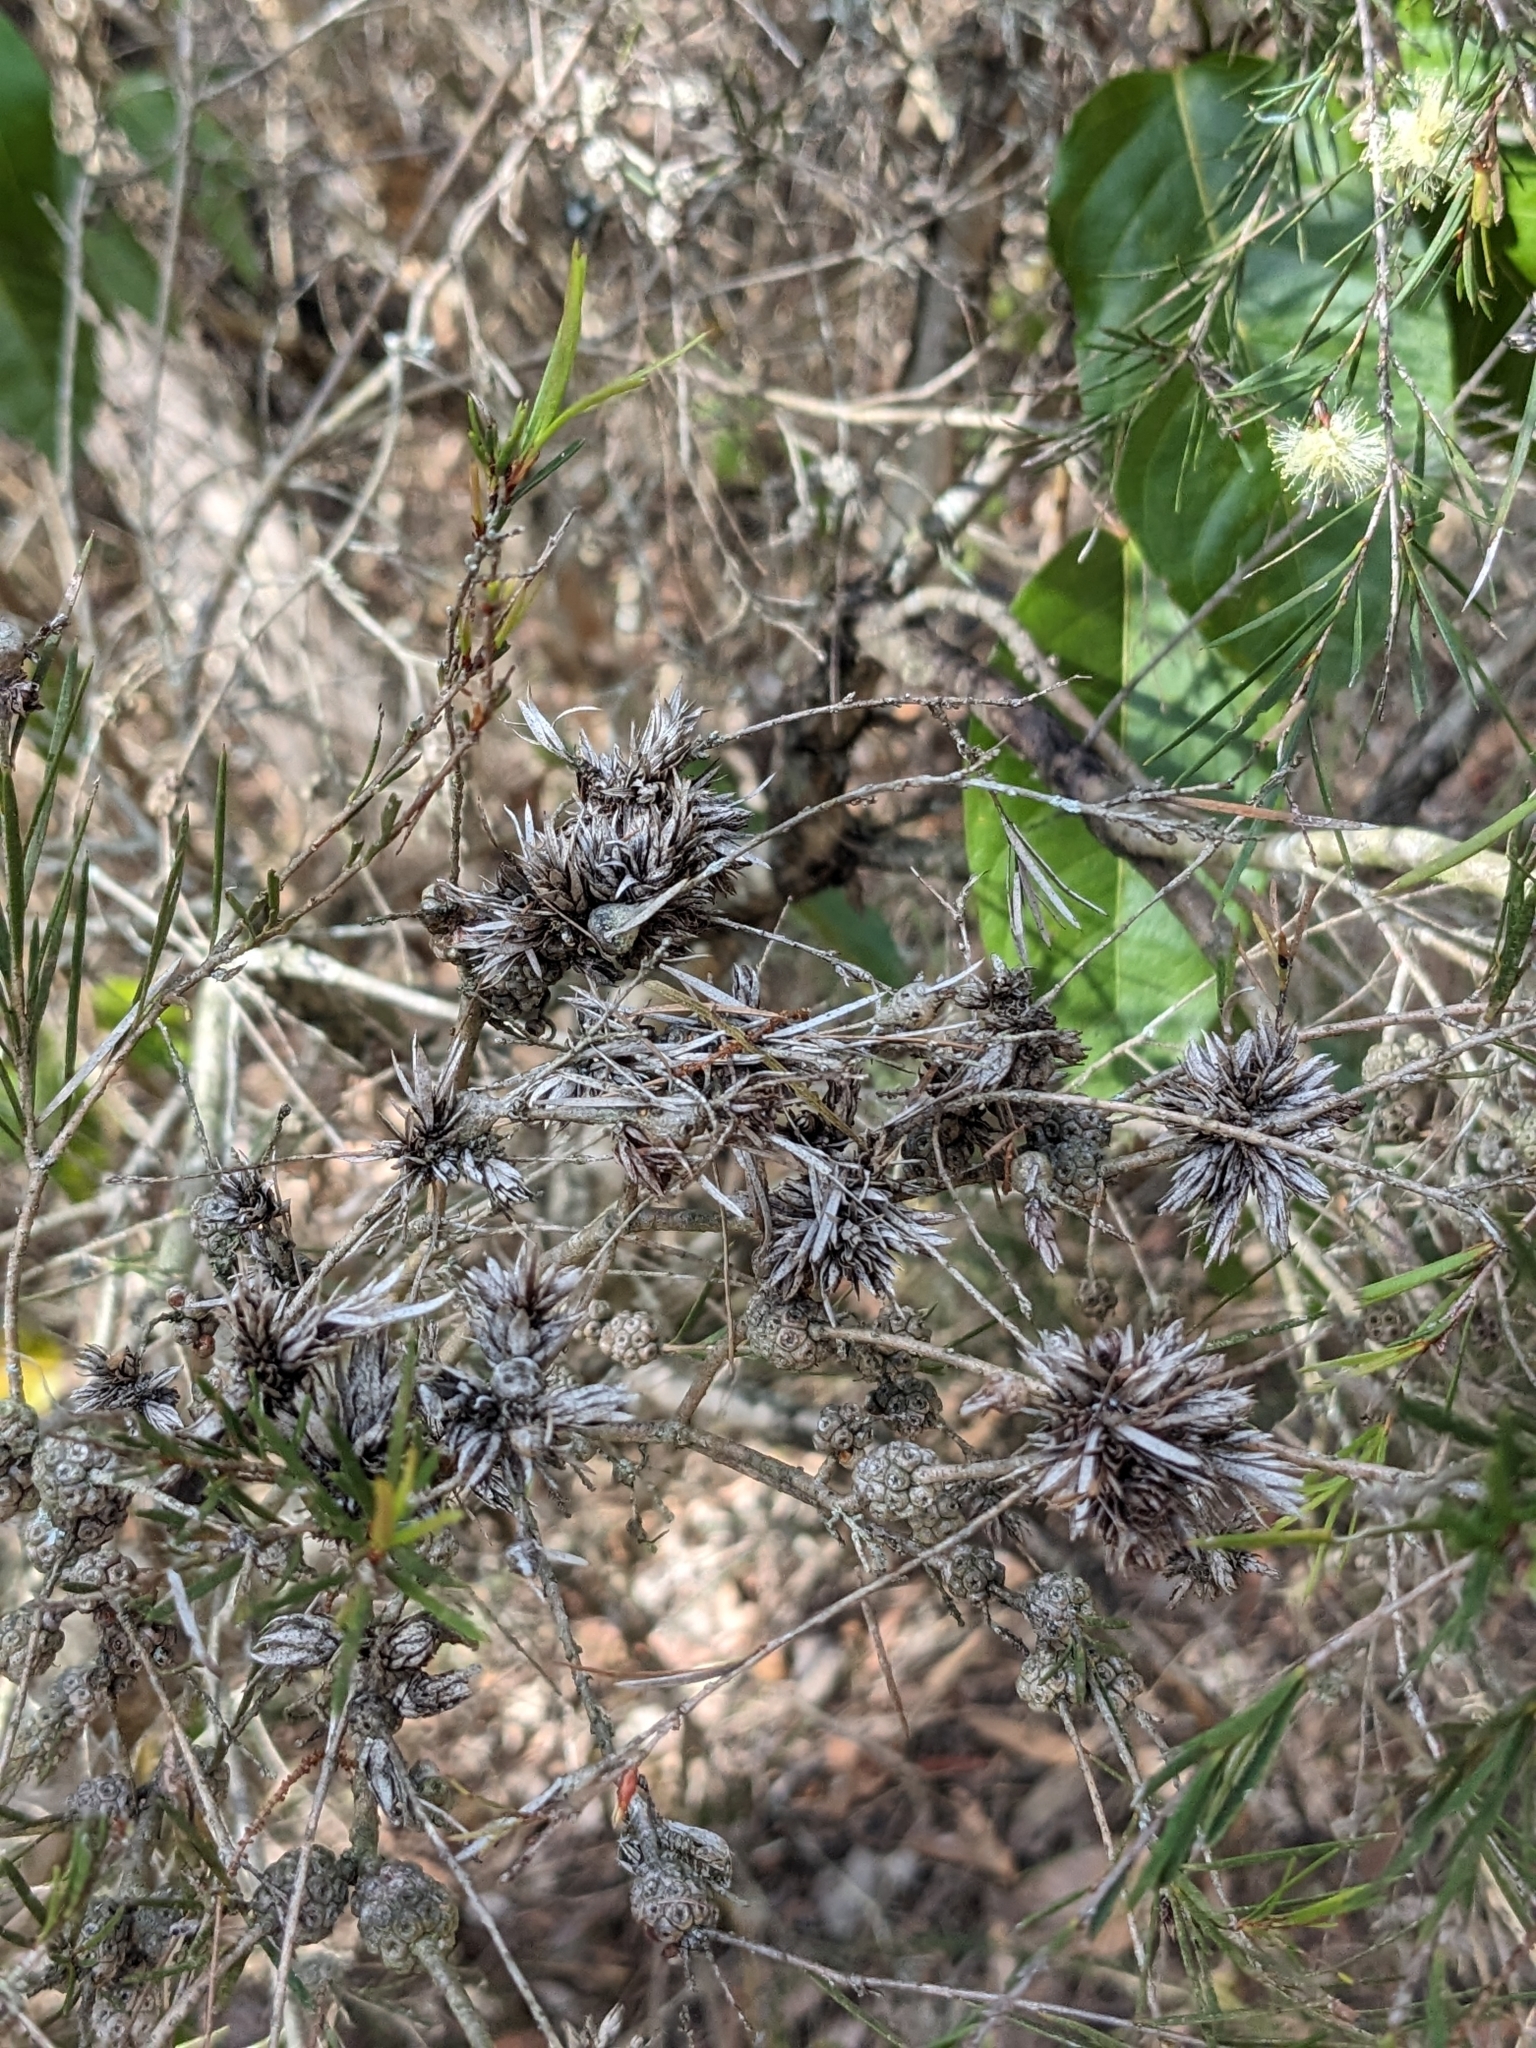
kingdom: Plantae
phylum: Tracheophyta
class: Magnoliopsida
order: Myrtales
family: Myrtaceae
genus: Melaleuca
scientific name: Melaleuca nodosa
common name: Prickly-leaf paperbark
